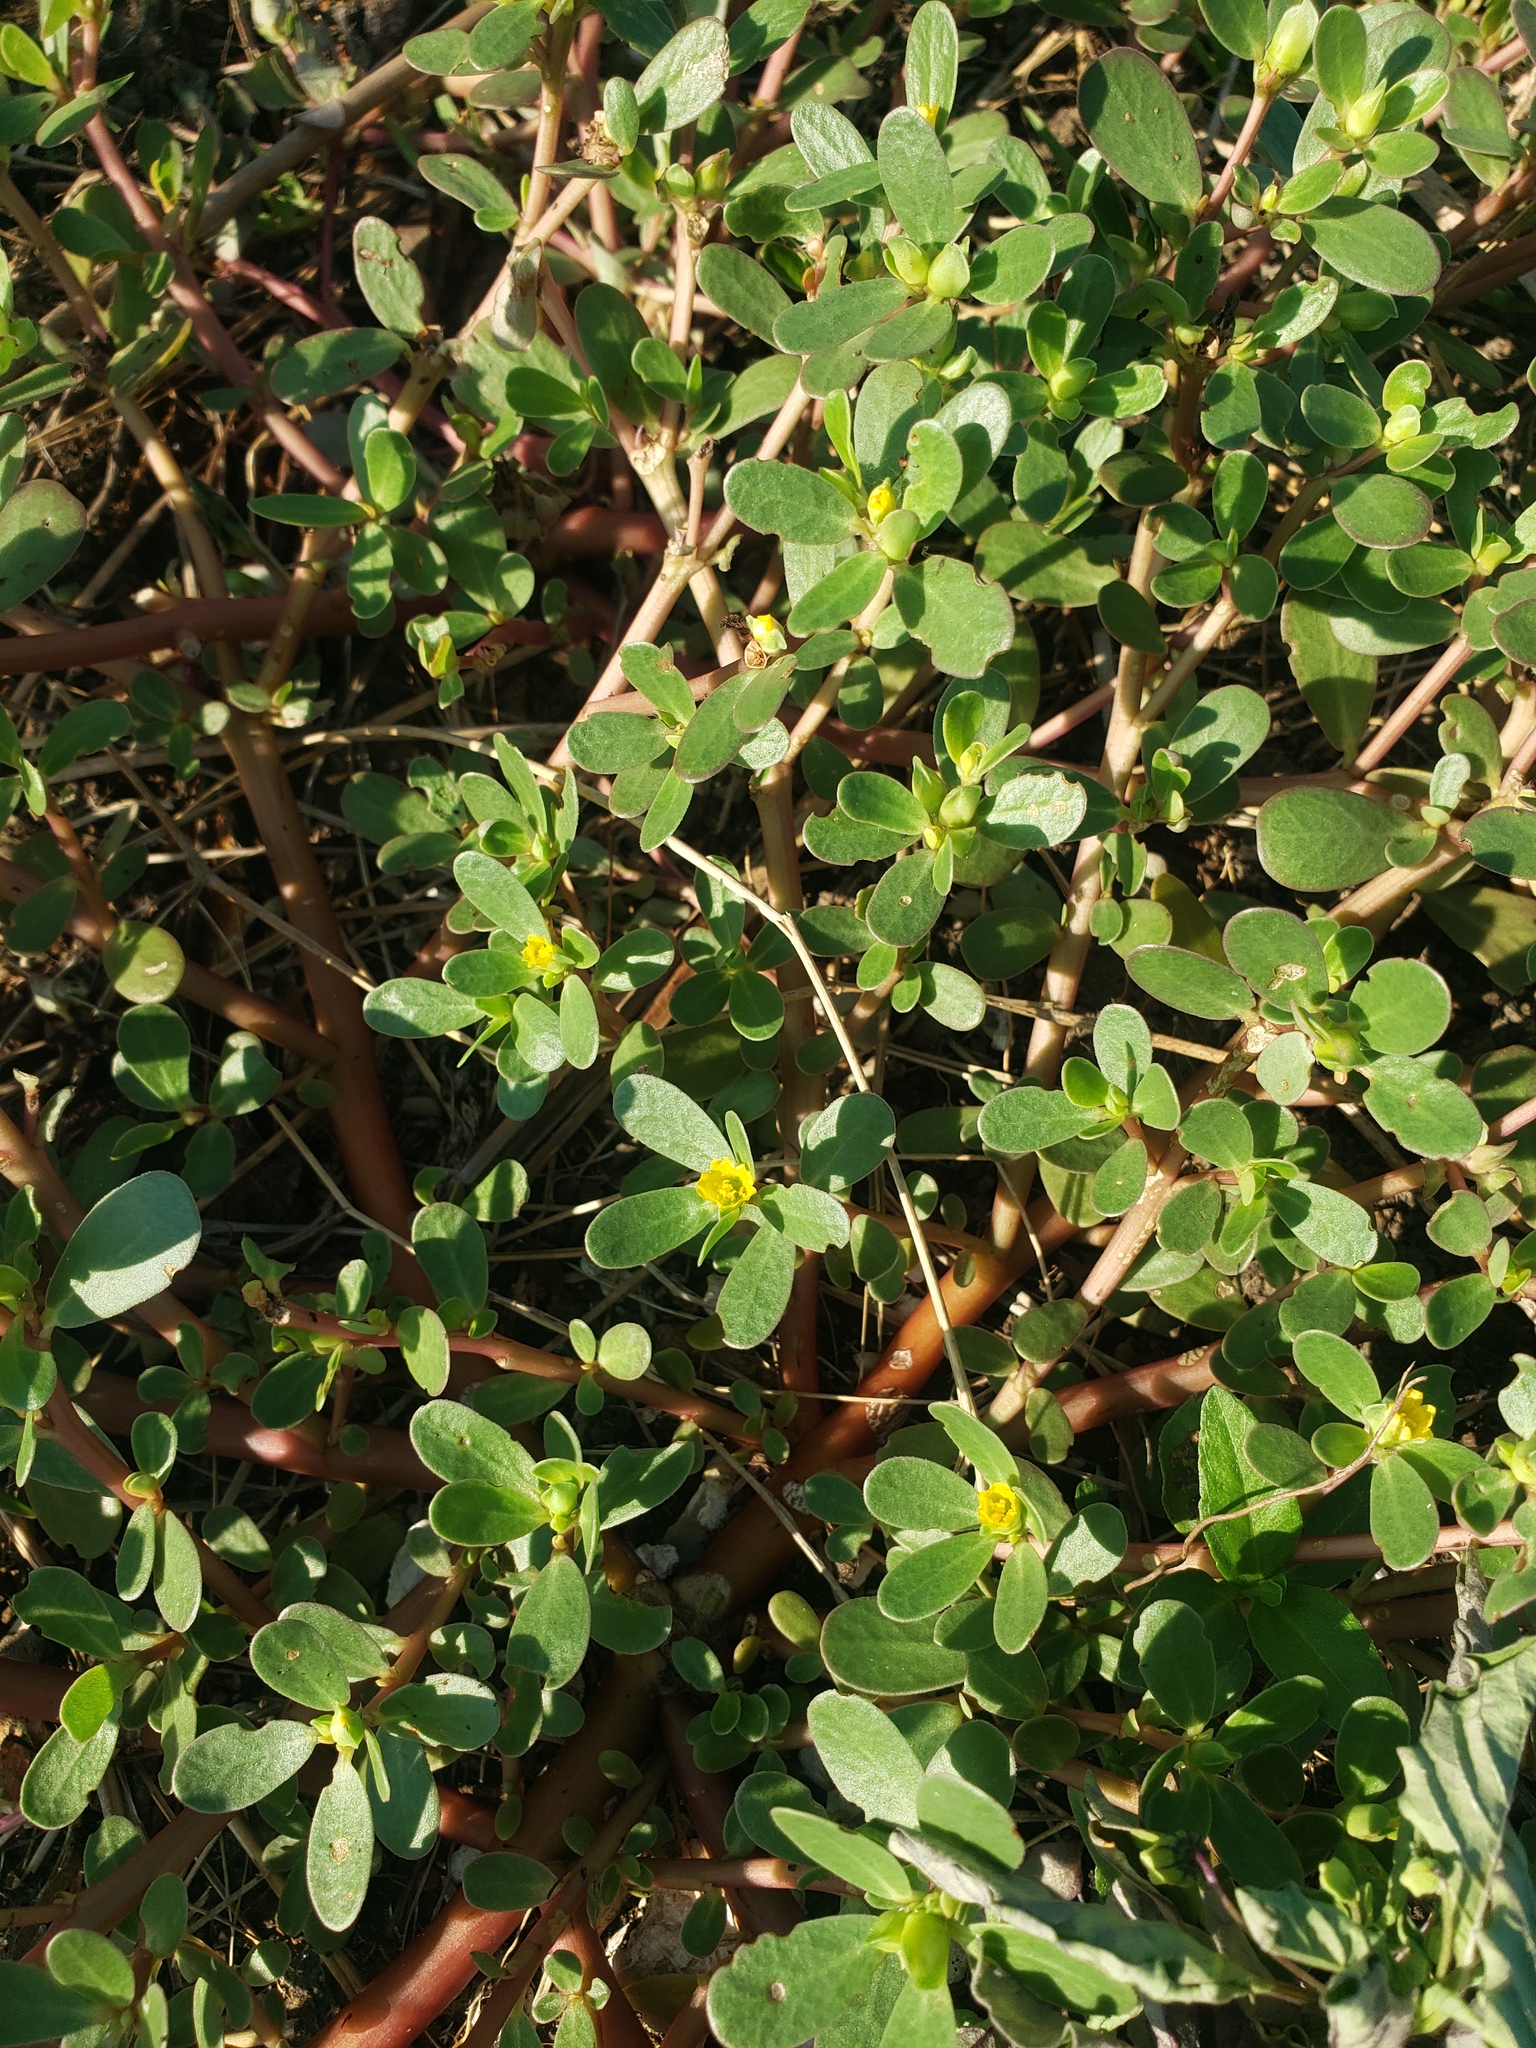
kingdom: Plantae
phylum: Tracheophyta
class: Magnoliopsida
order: Caryophyllales
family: Portulacaceae
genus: Portulaca
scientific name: Portulaca oleracea
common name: Common purslane
